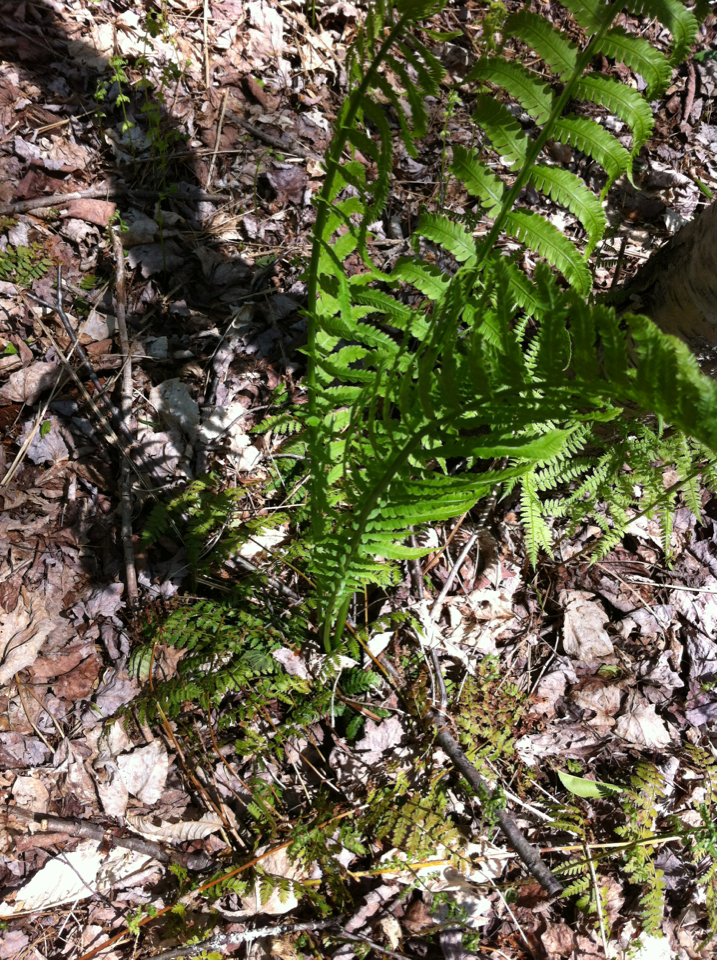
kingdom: Plantae
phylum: Tracheophyta
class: Polypodiopsida
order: Polypodiales
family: Onocleaceae
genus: Matteuccia
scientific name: Matteuccia struthiopteris
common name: Ostrich fern
